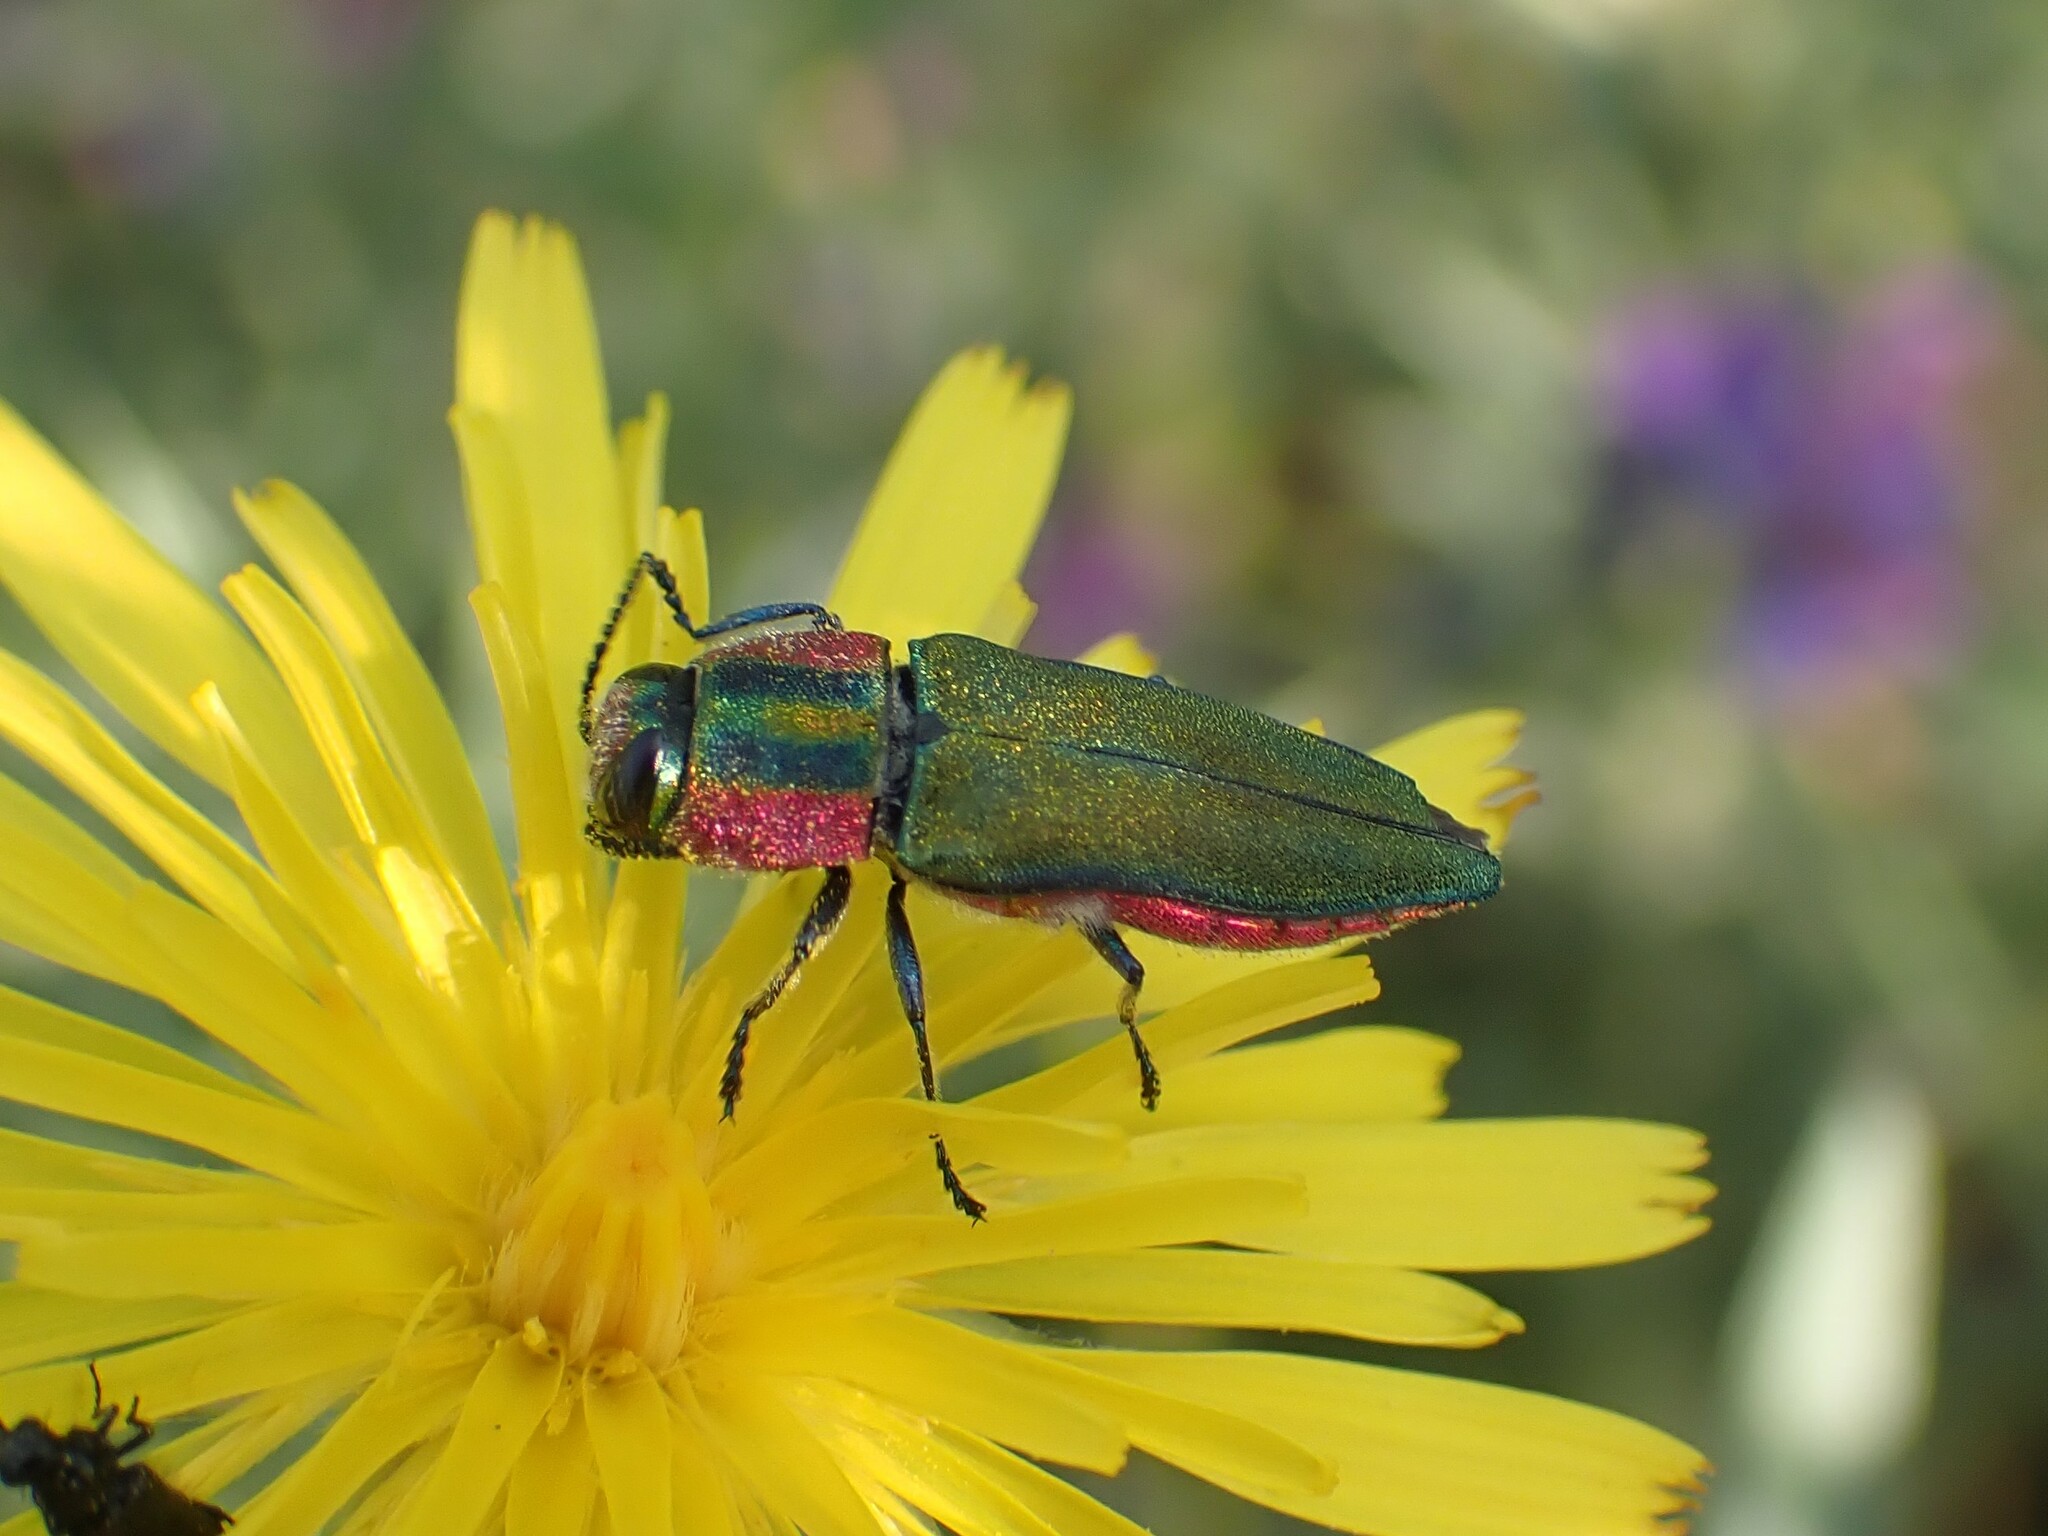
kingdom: Animalia
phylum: Arthropoda
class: Insecta
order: Coleoptera
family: Buprestidae
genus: Anthaxia
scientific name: Anthaxia hungarica
